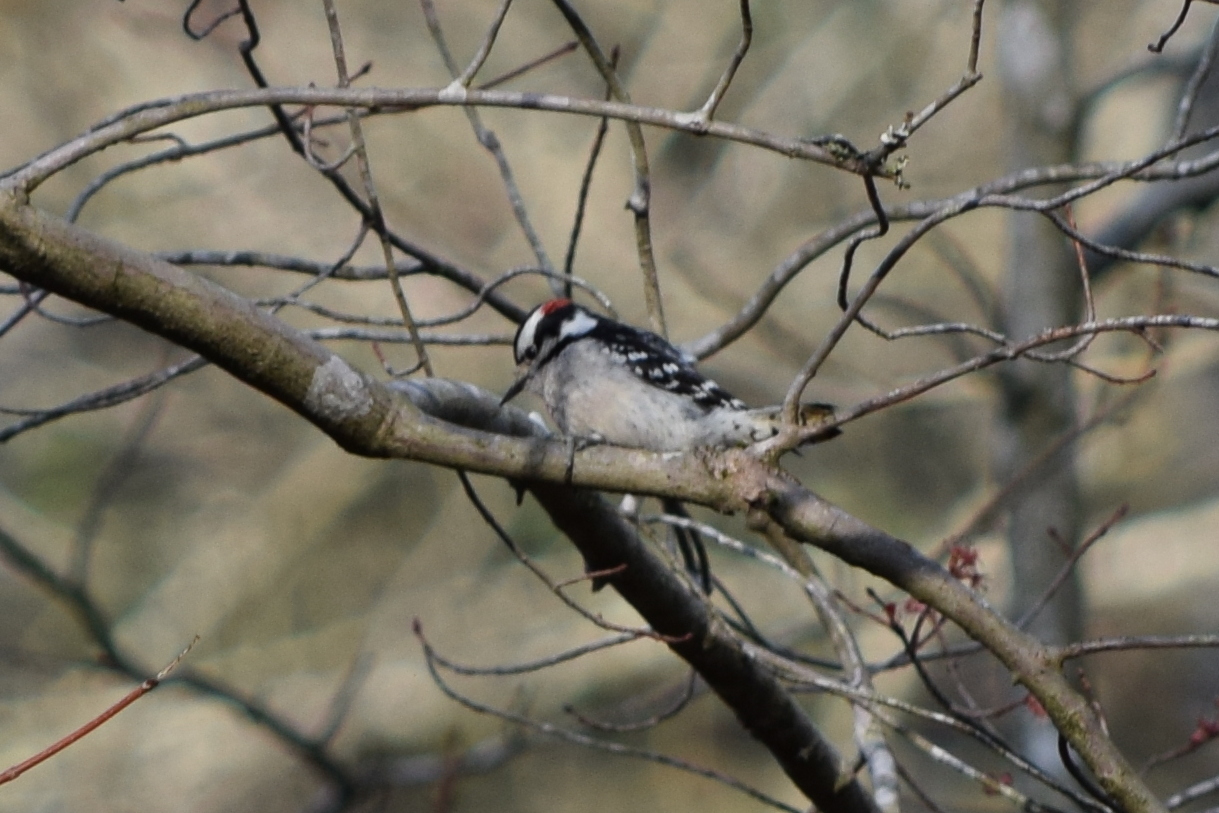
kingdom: Animalia
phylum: Chordata
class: Aves
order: Piciformes
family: Picidae
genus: Dryobates
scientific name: Dryobates pubescens
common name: Downy woodpecker
